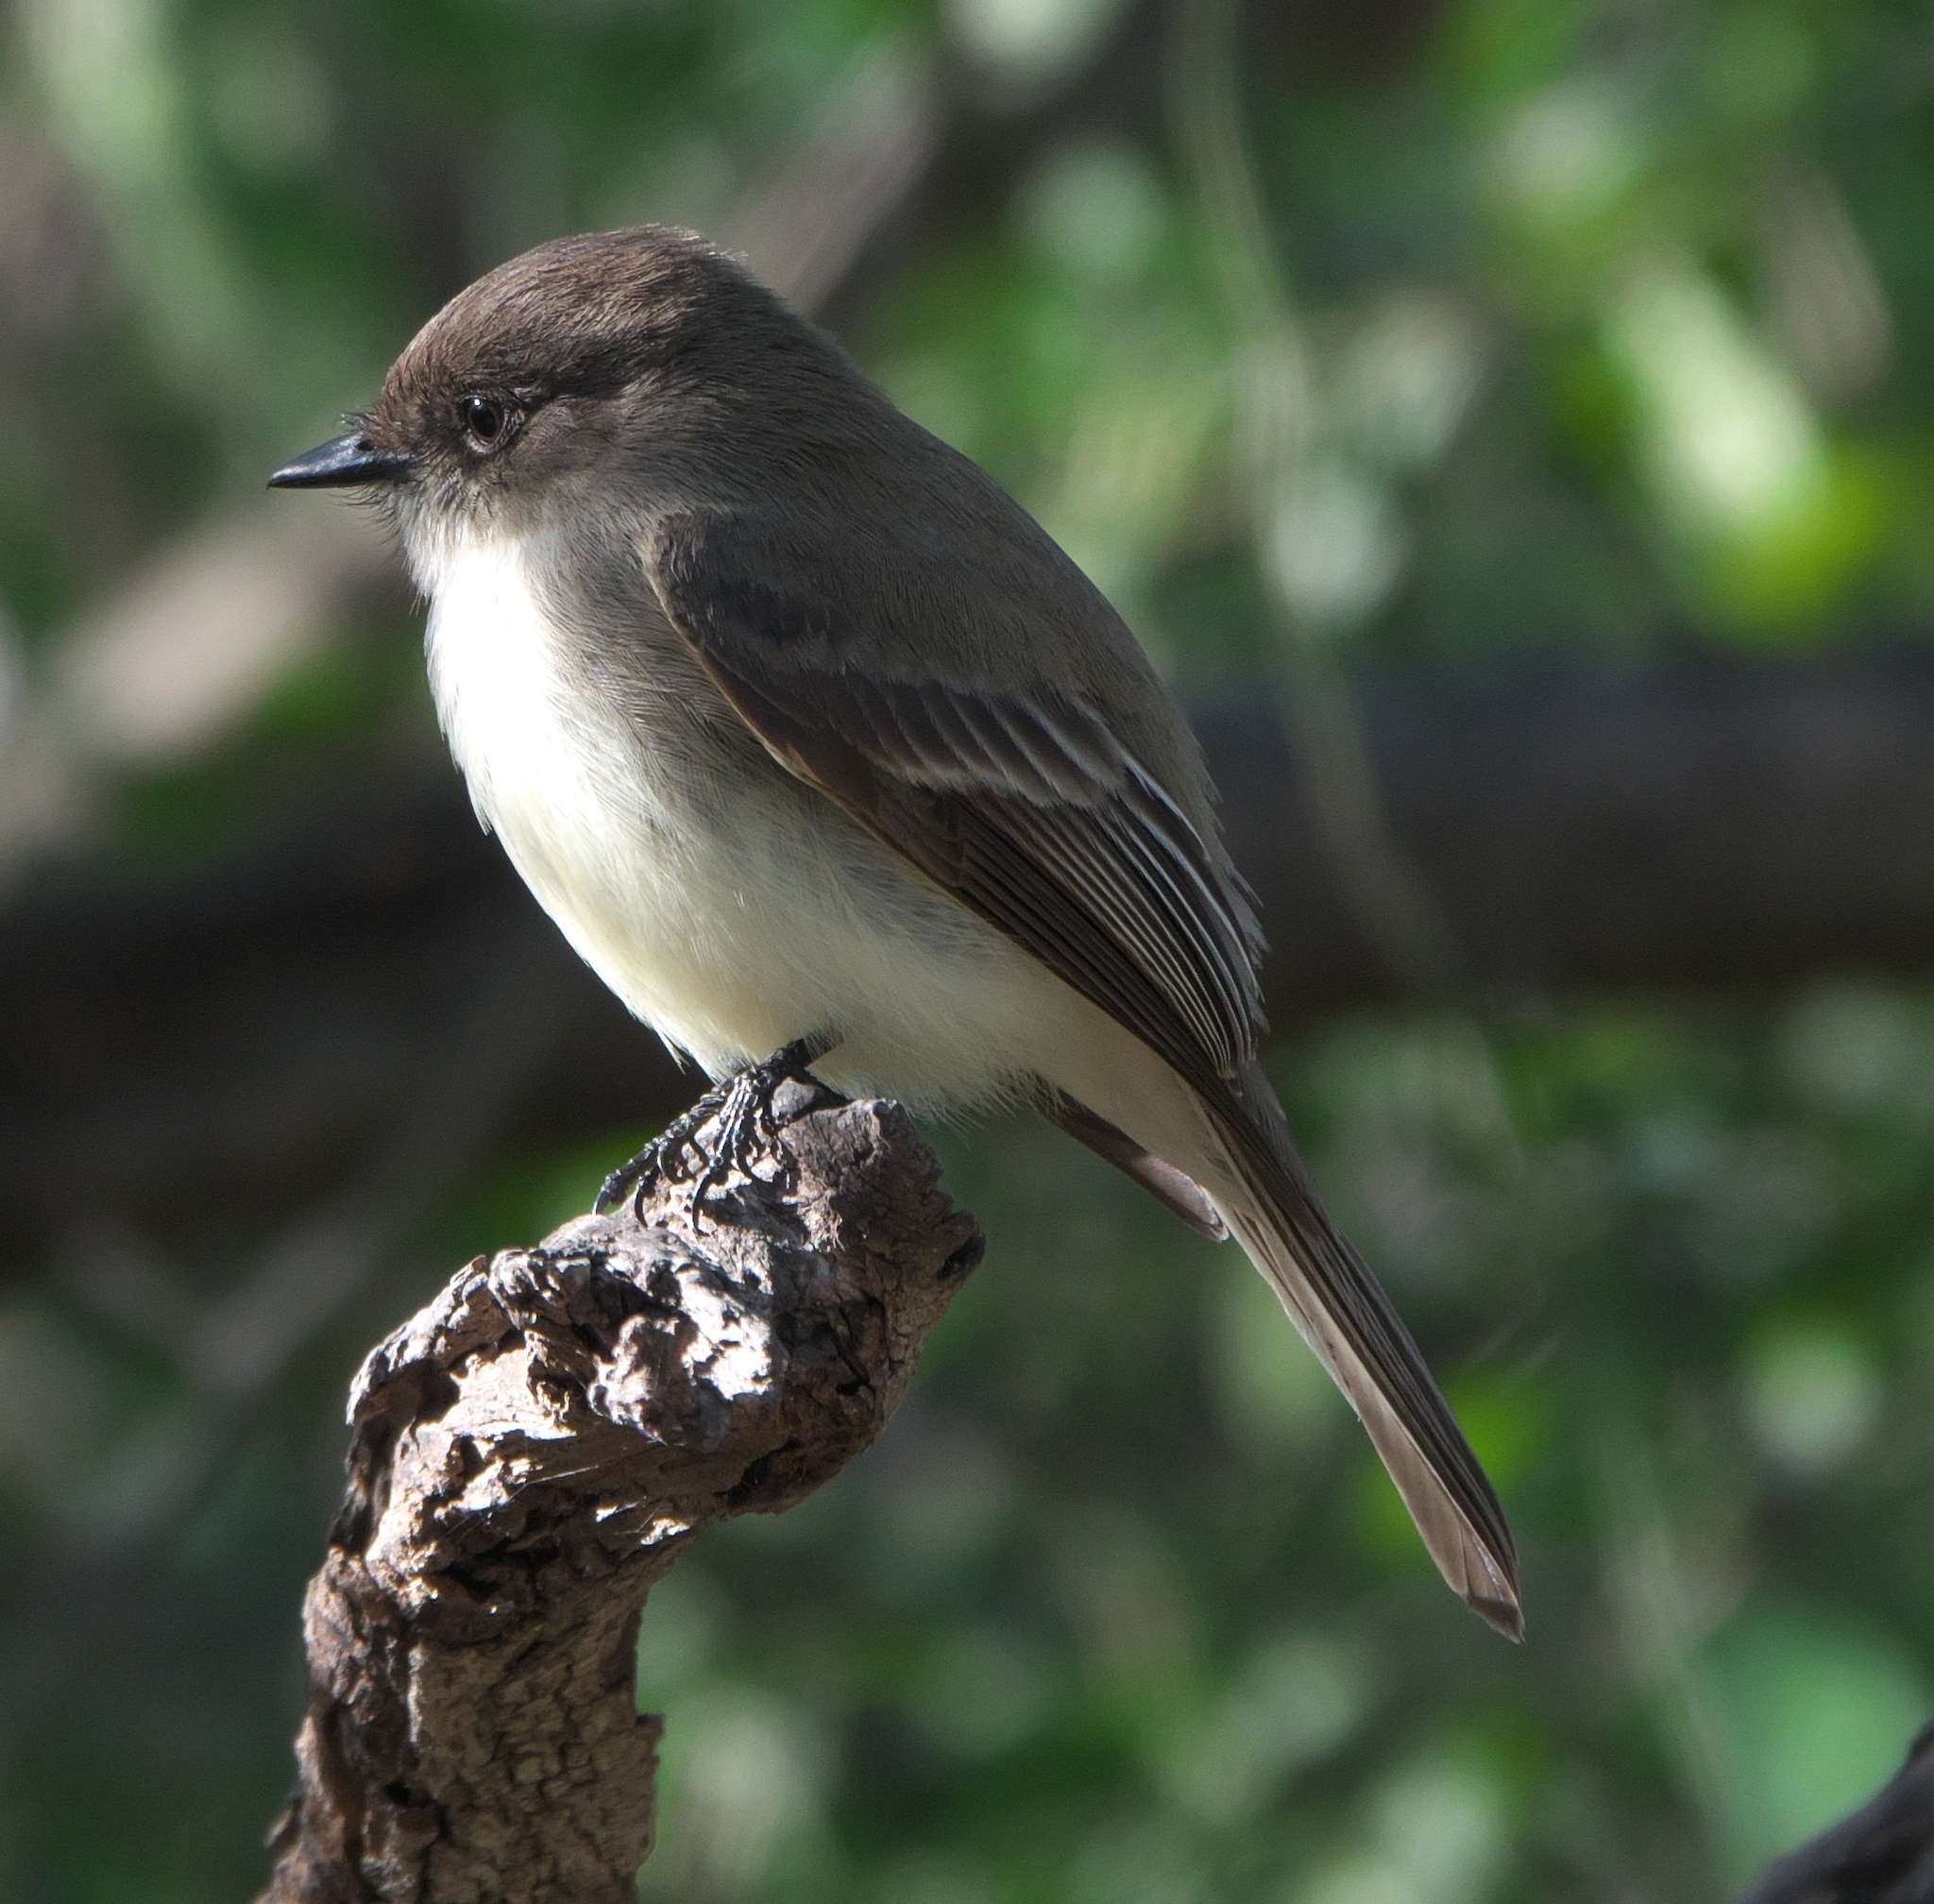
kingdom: Animalia
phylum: Chordata
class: Aves
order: Passeriformes
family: Tyrannidae
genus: Sayornis
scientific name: Sayornis phoebe
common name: Eastern phoebe
